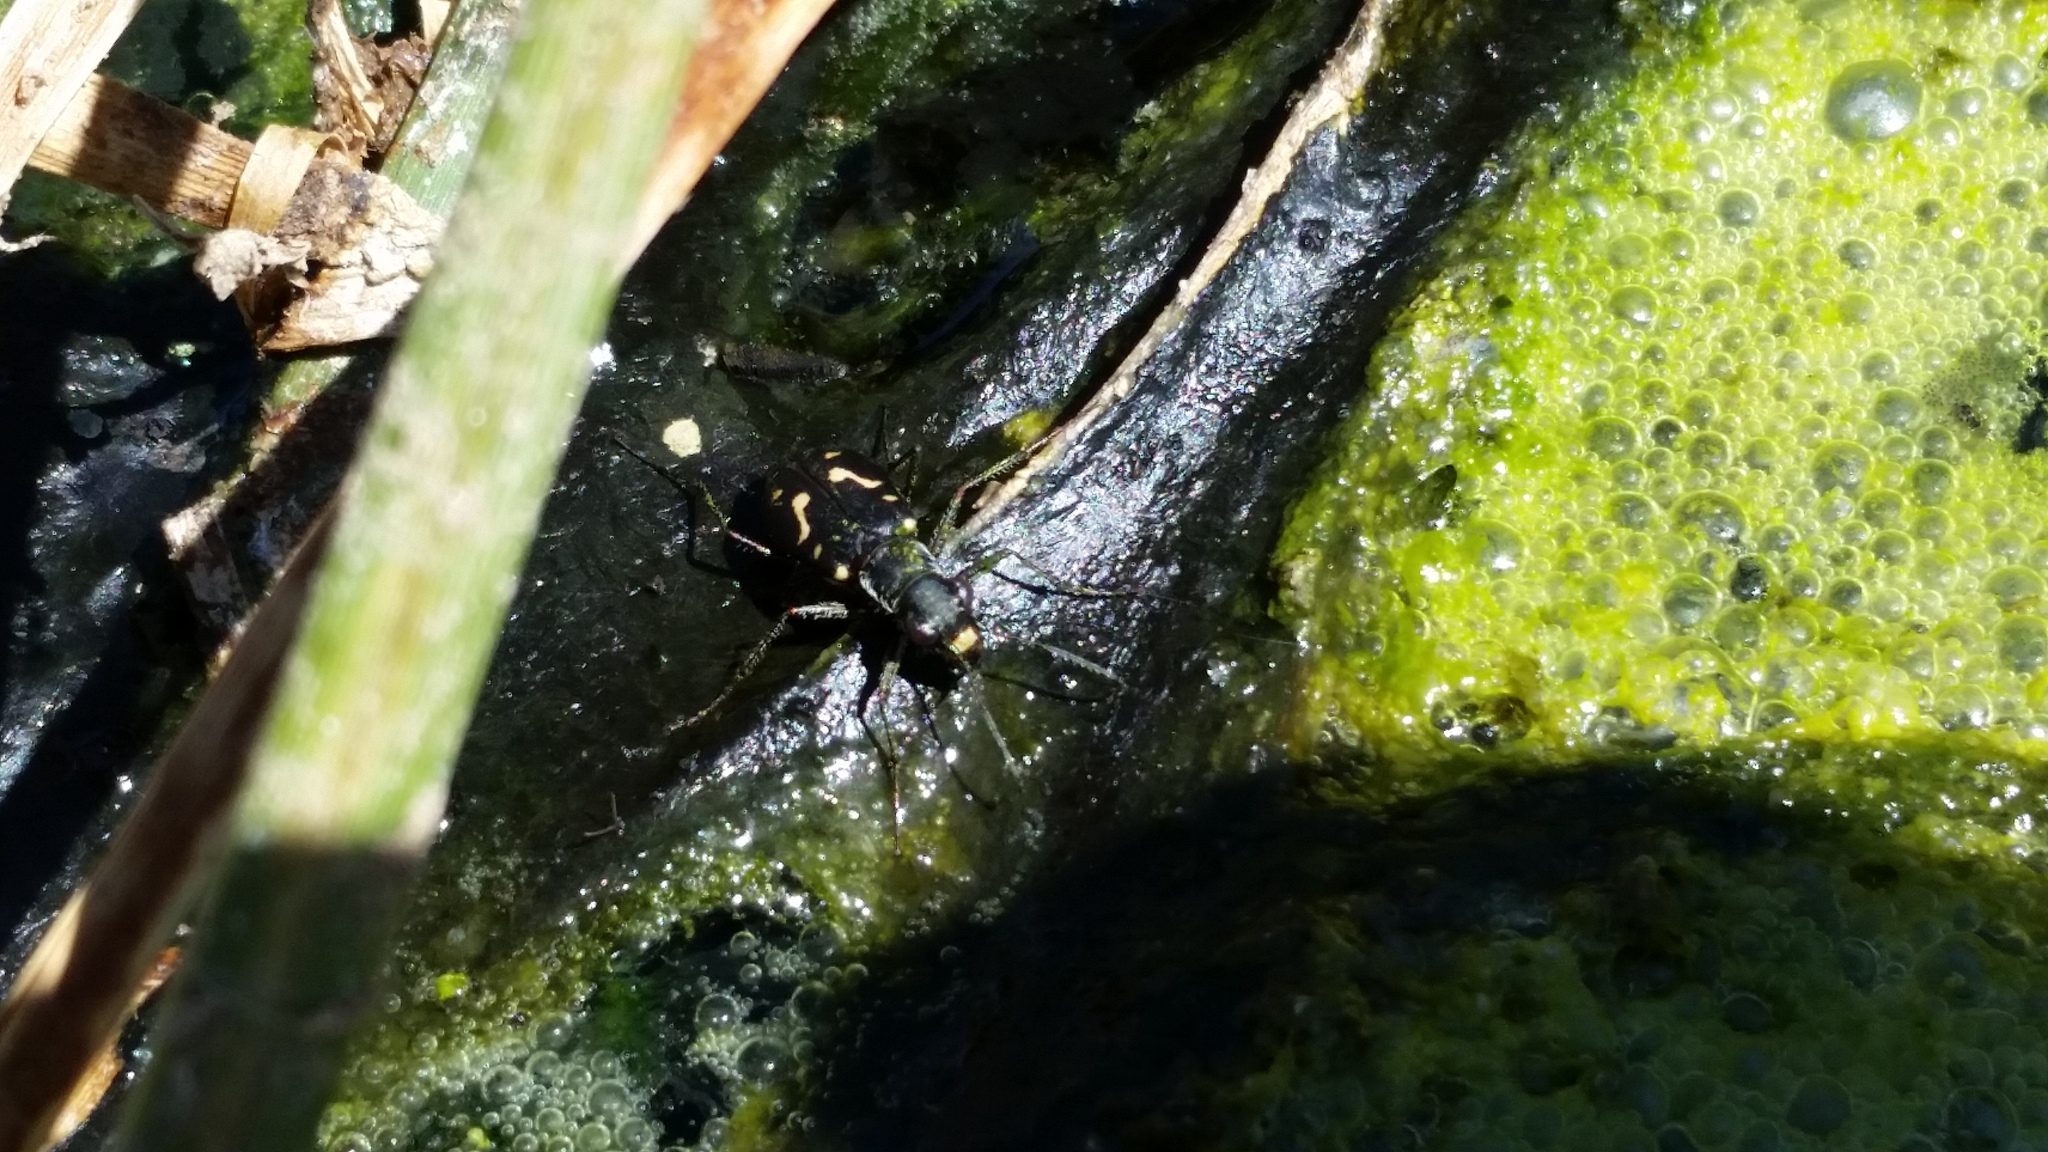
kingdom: Animalia
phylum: Arthropoda
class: Insecta
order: Coleoptera
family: Carabidae
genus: Cicindela
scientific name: Cicindela hemorrhagica
